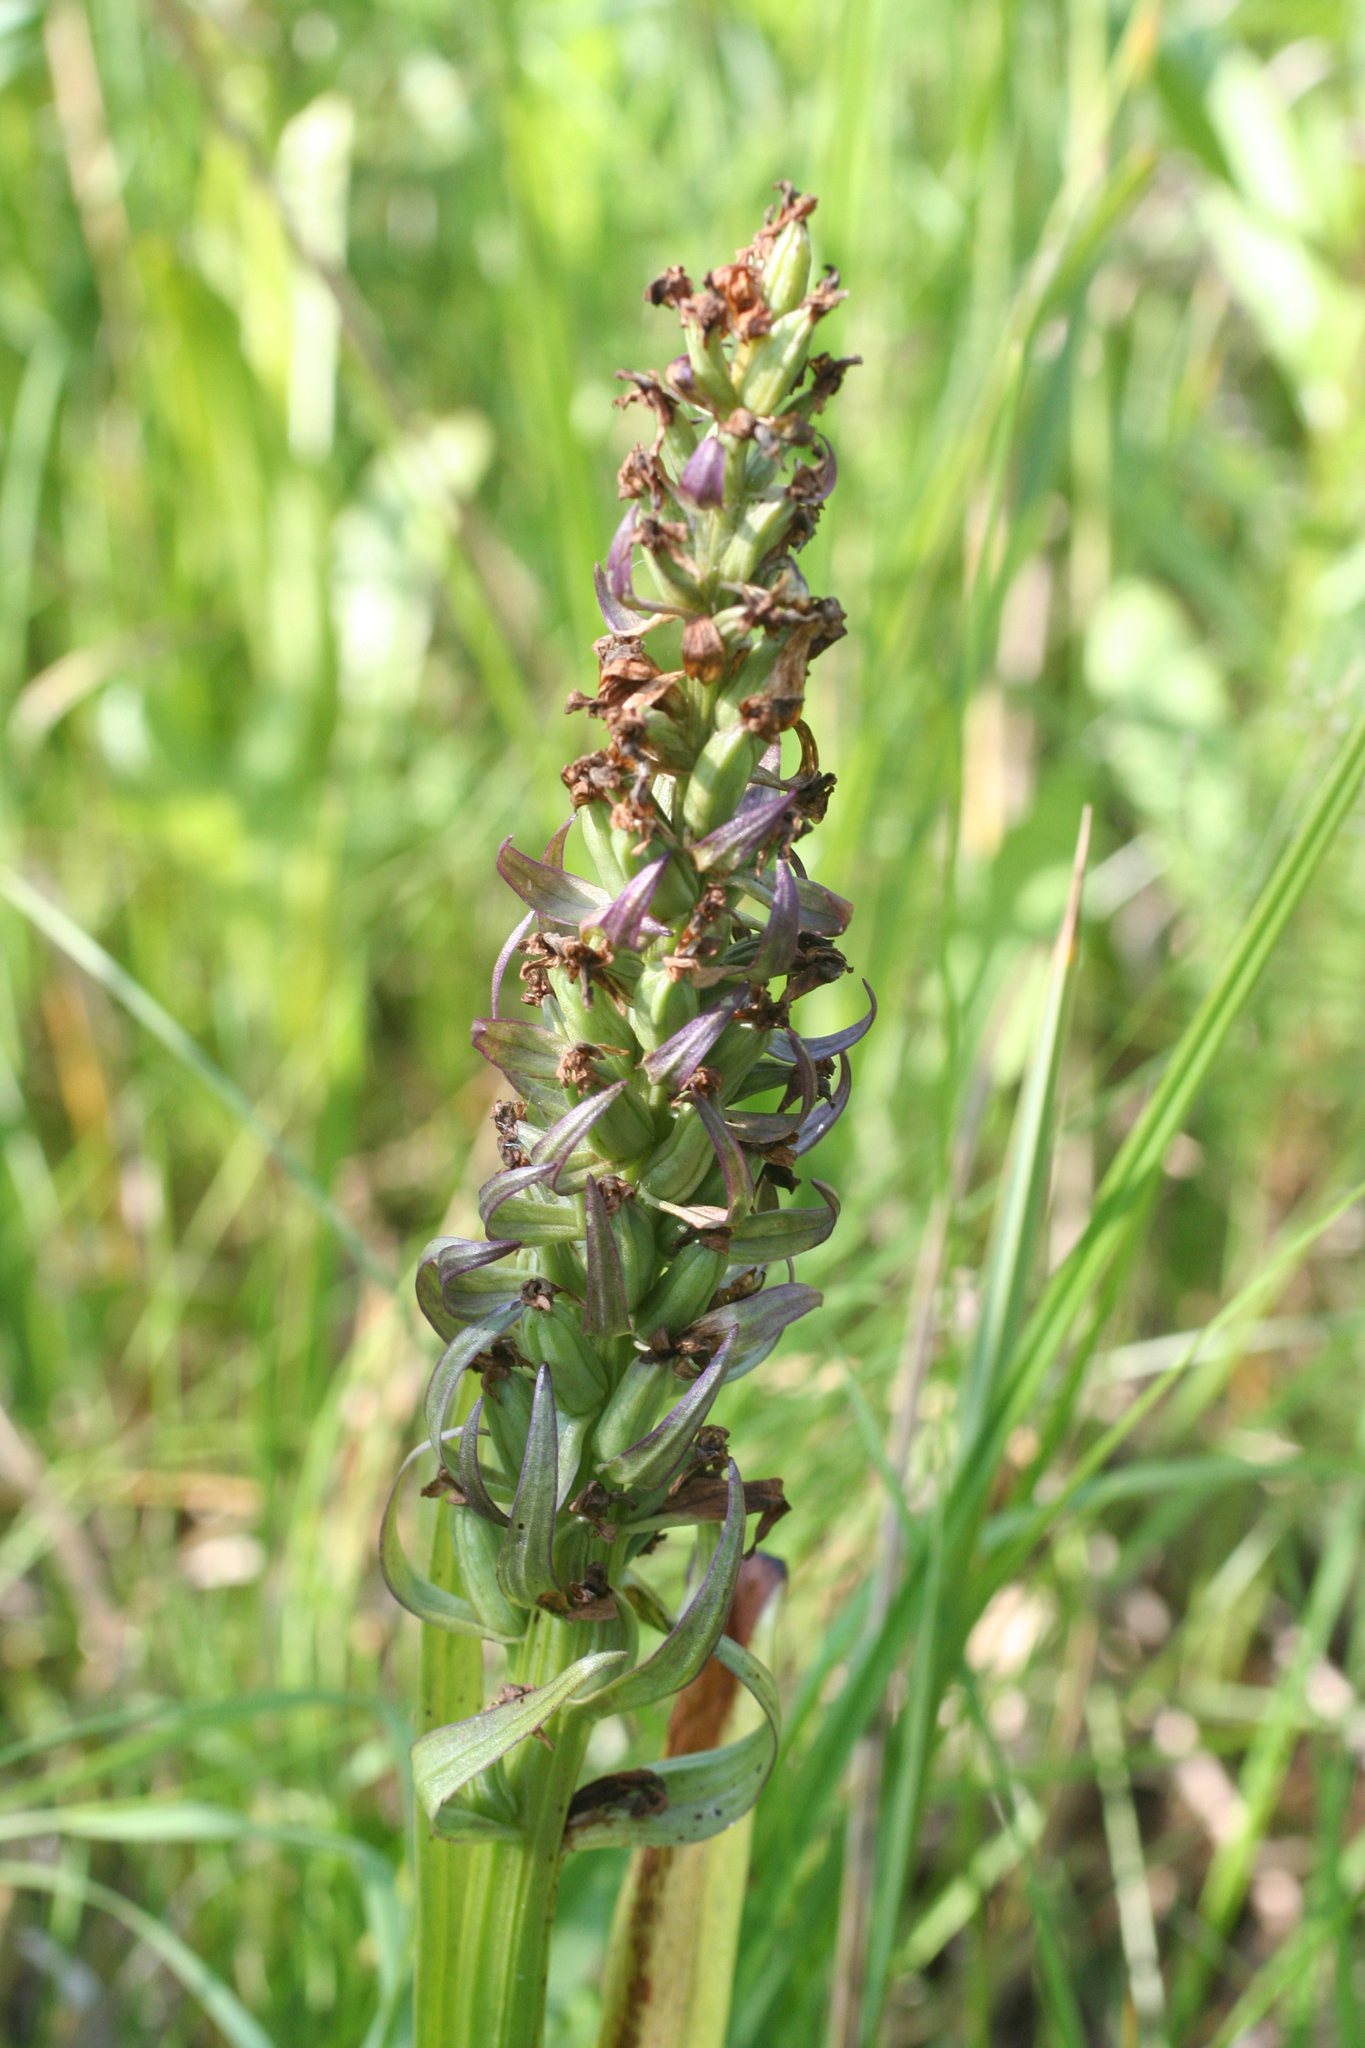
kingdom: Plantae
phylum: Tracheophyta
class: Liliopsida
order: Asparagales
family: Orchidaceae
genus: Dactylorhiza
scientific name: Dactylorhiza incarnata
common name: Early marsh-orchid
